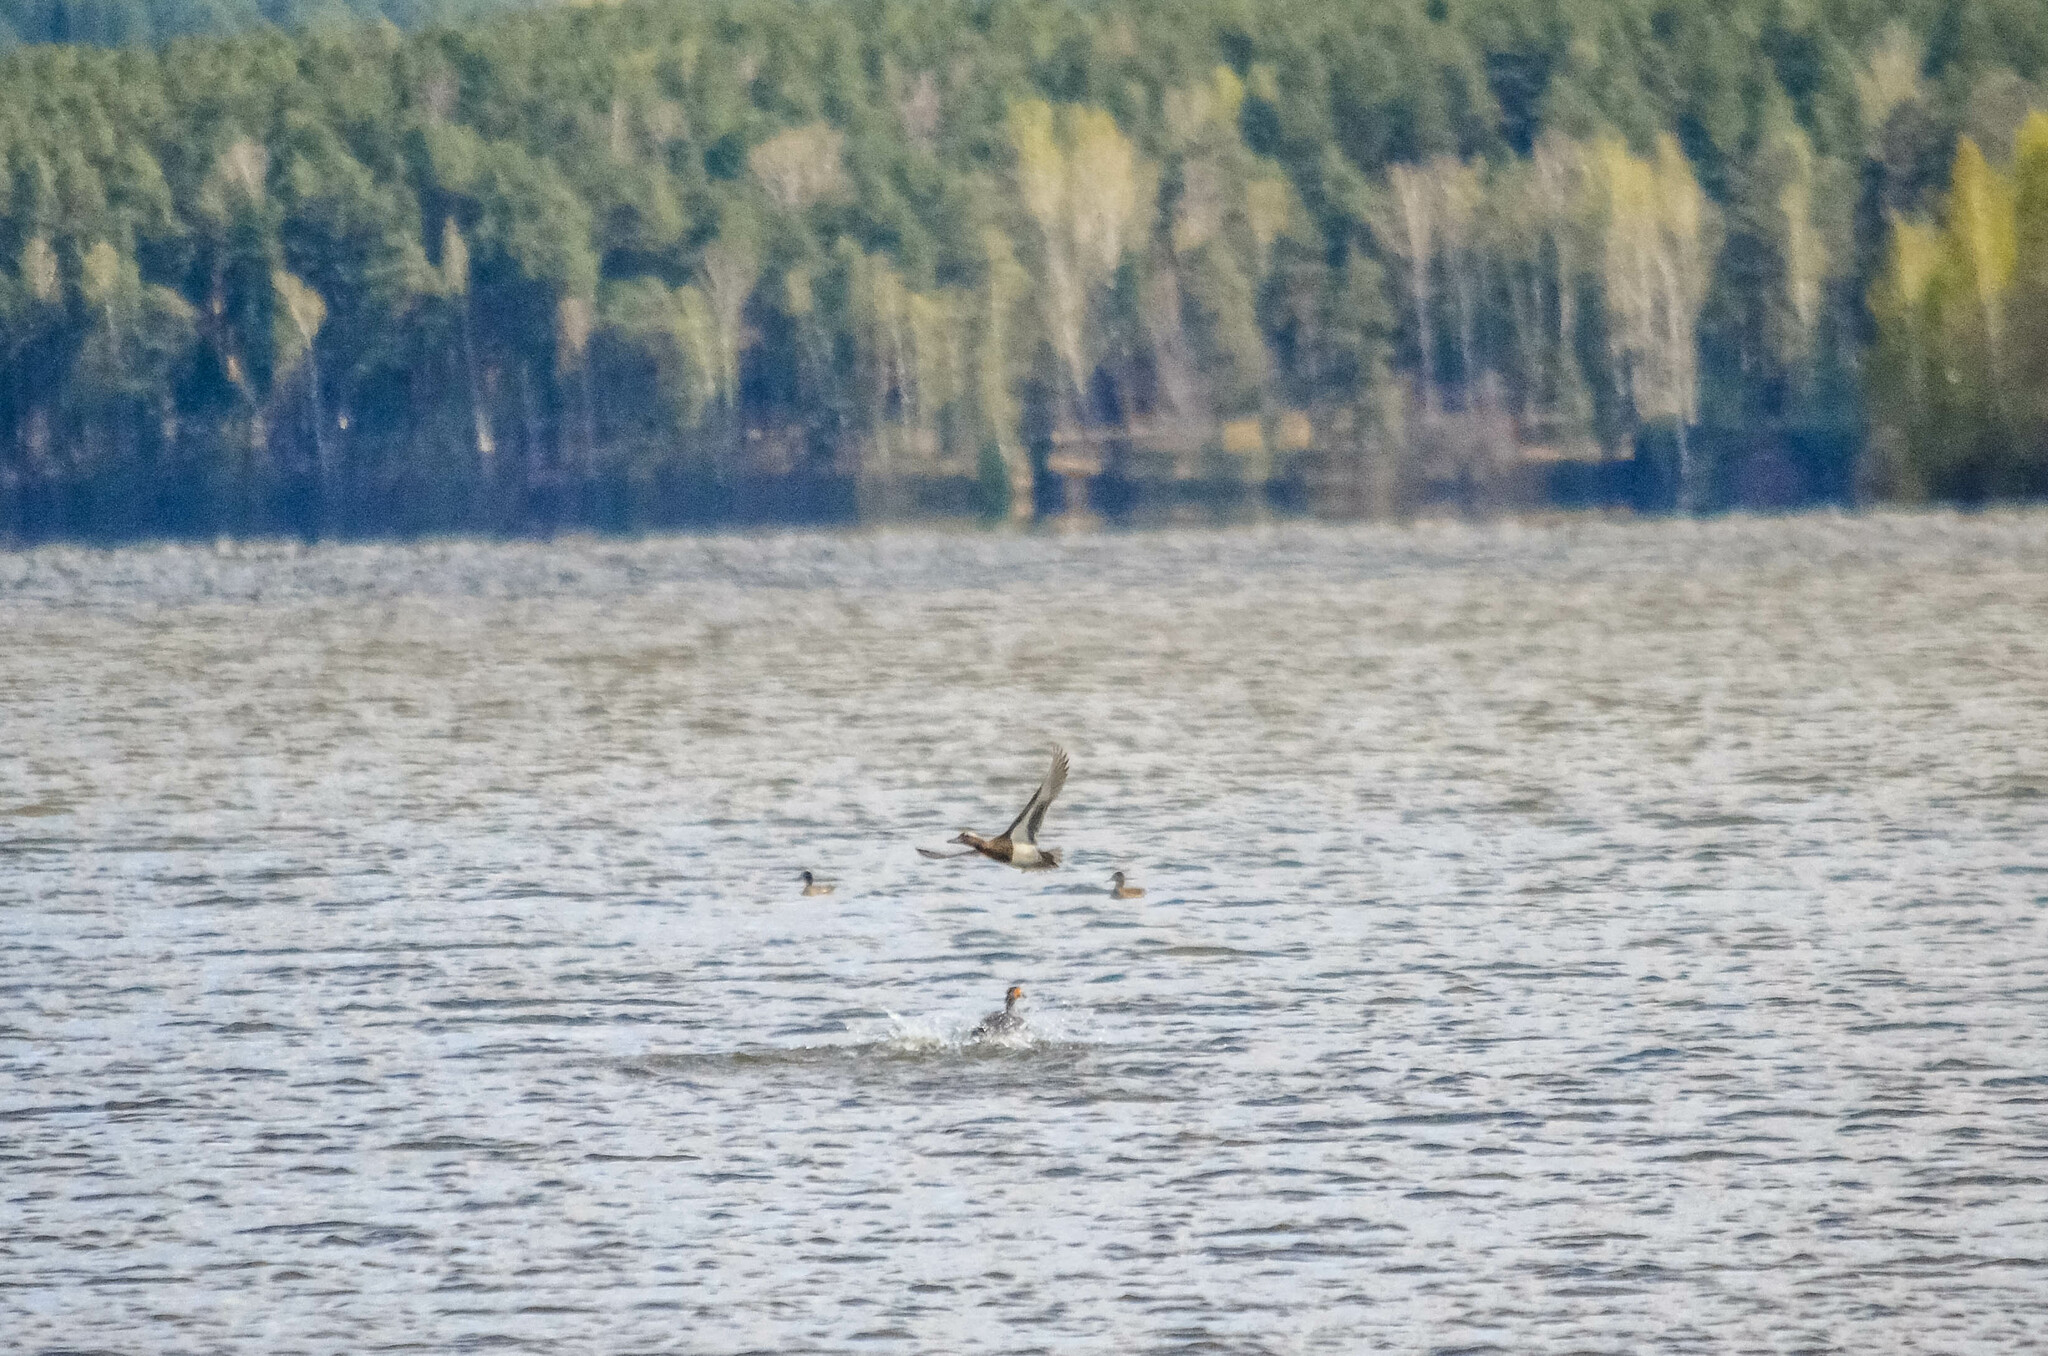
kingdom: Animalia
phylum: Chordata
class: Aves
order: Anseriformes
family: Anatidae
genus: Spatula
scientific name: Spatula querquedula
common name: Garganey
